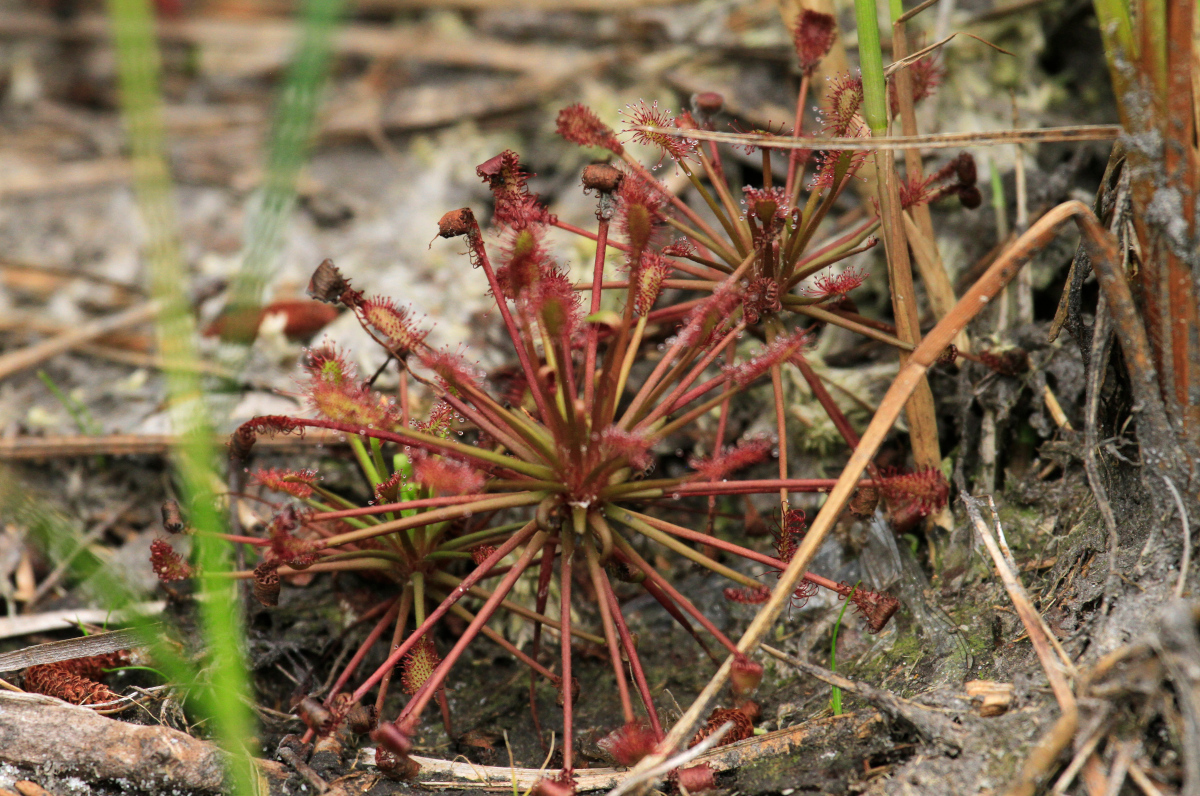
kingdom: Plantae
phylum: Tracheophyta
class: Magnoliopsida
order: Caryophyllales
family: Droseraceae
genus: Drosera
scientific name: Drosera intermedia
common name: Oblong-leaved sundew
